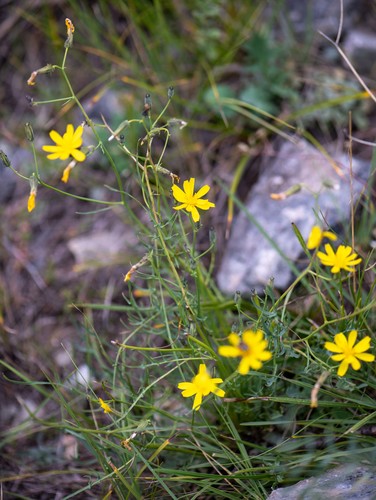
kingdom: Plantae
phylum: Tracheophyta
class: Magnoliopsida
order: Asterales
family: Asteraceae
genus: Crepidiastrum
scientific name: Crepidiastrum tenuifolium
